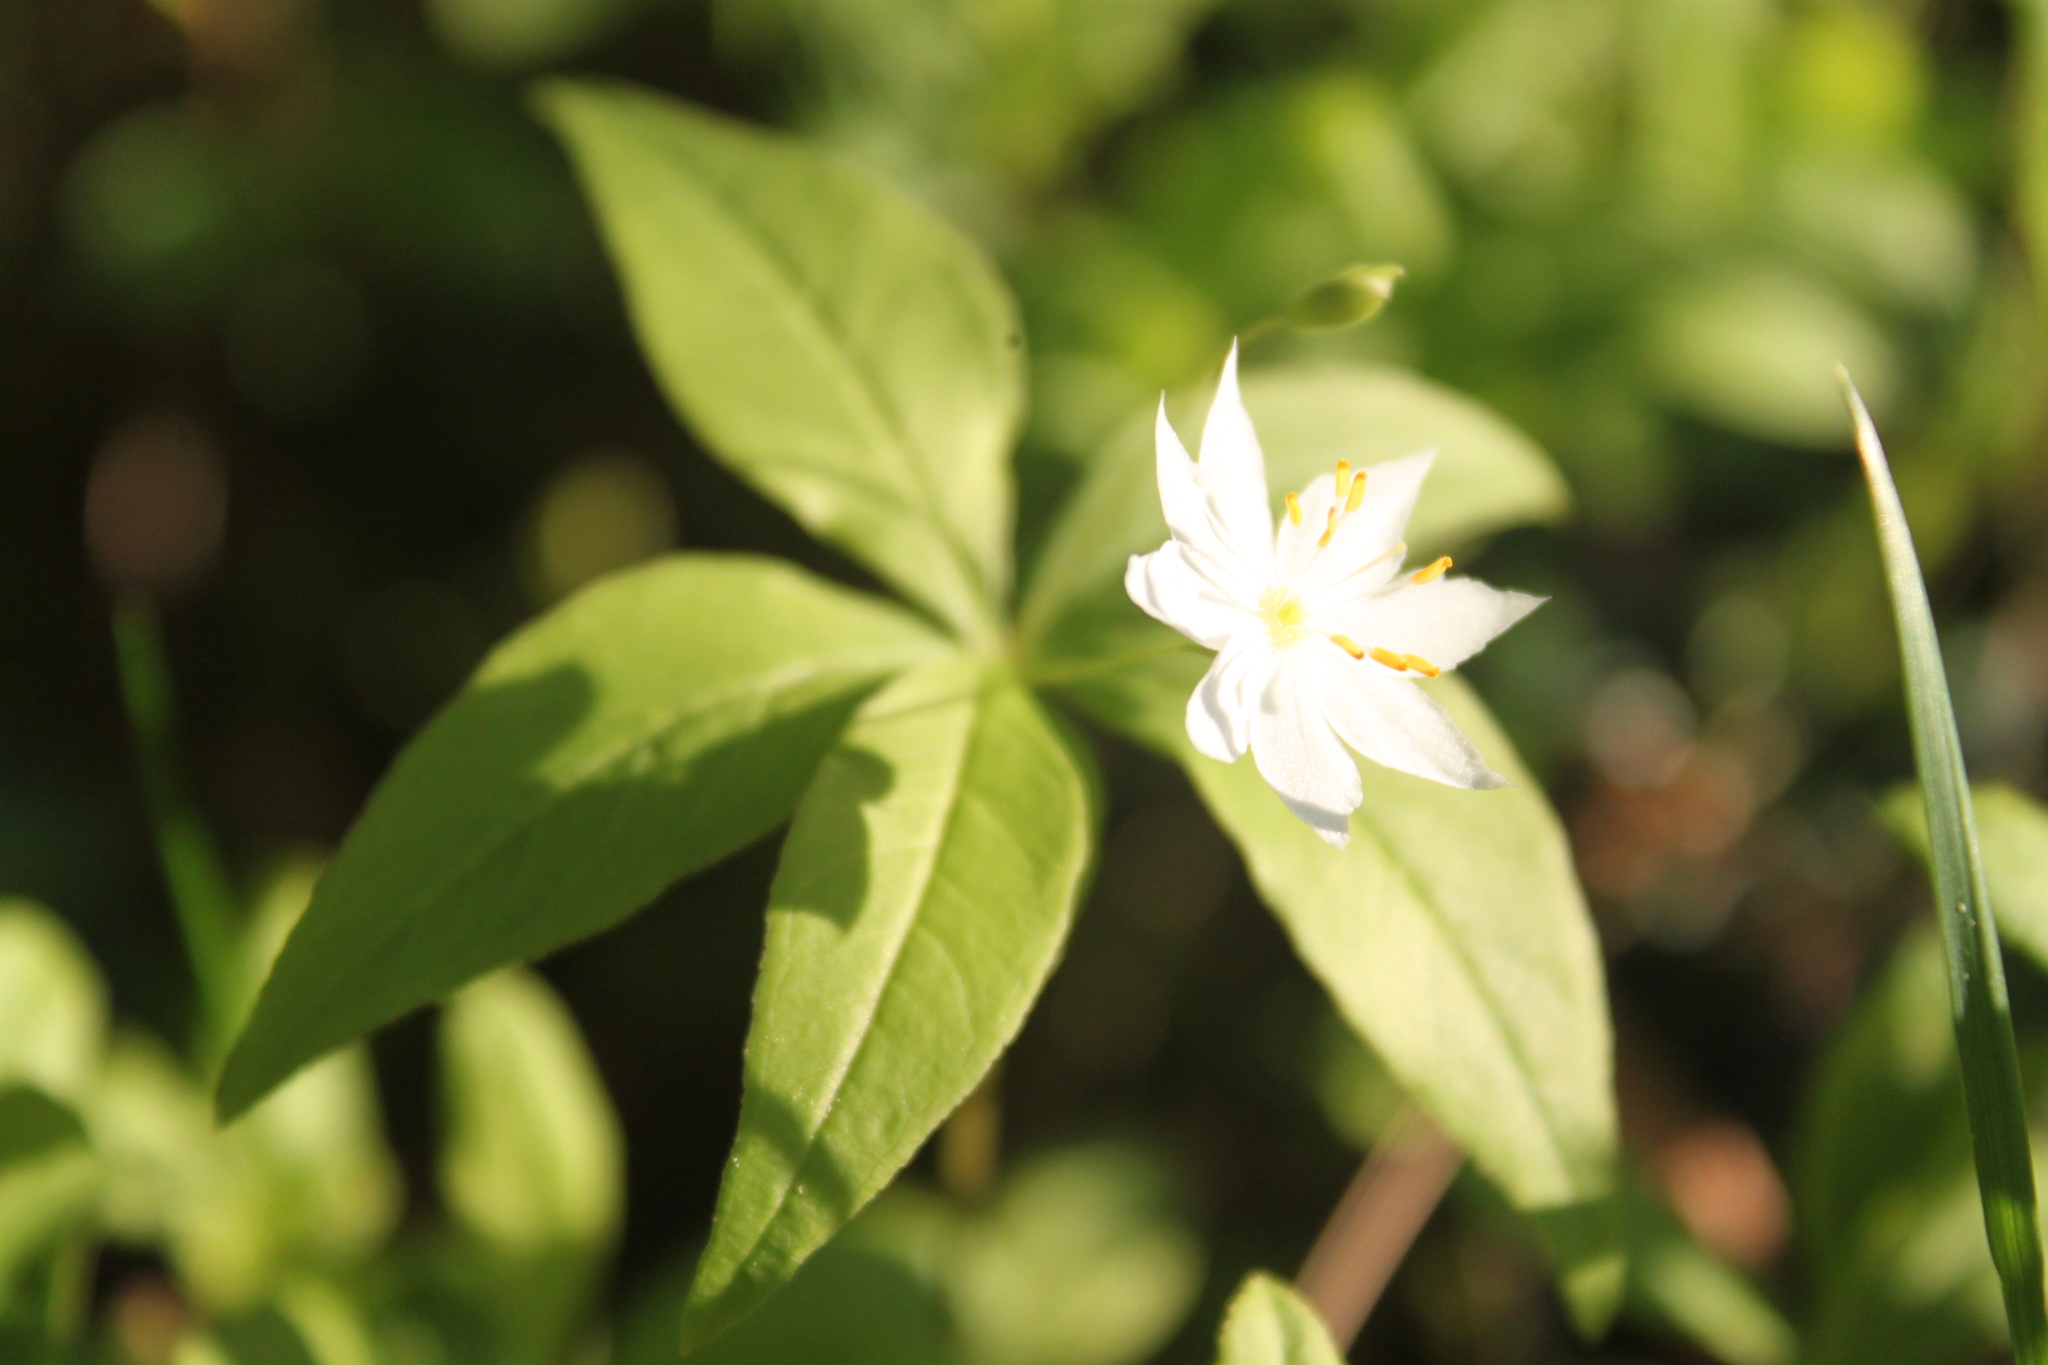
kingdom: Plantae
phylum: Tracheophyta
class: Magnoliopsida
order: Ericales
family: Primulaceae
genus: Lysimachia
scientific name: Lysimachia borealis
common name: American starflower
